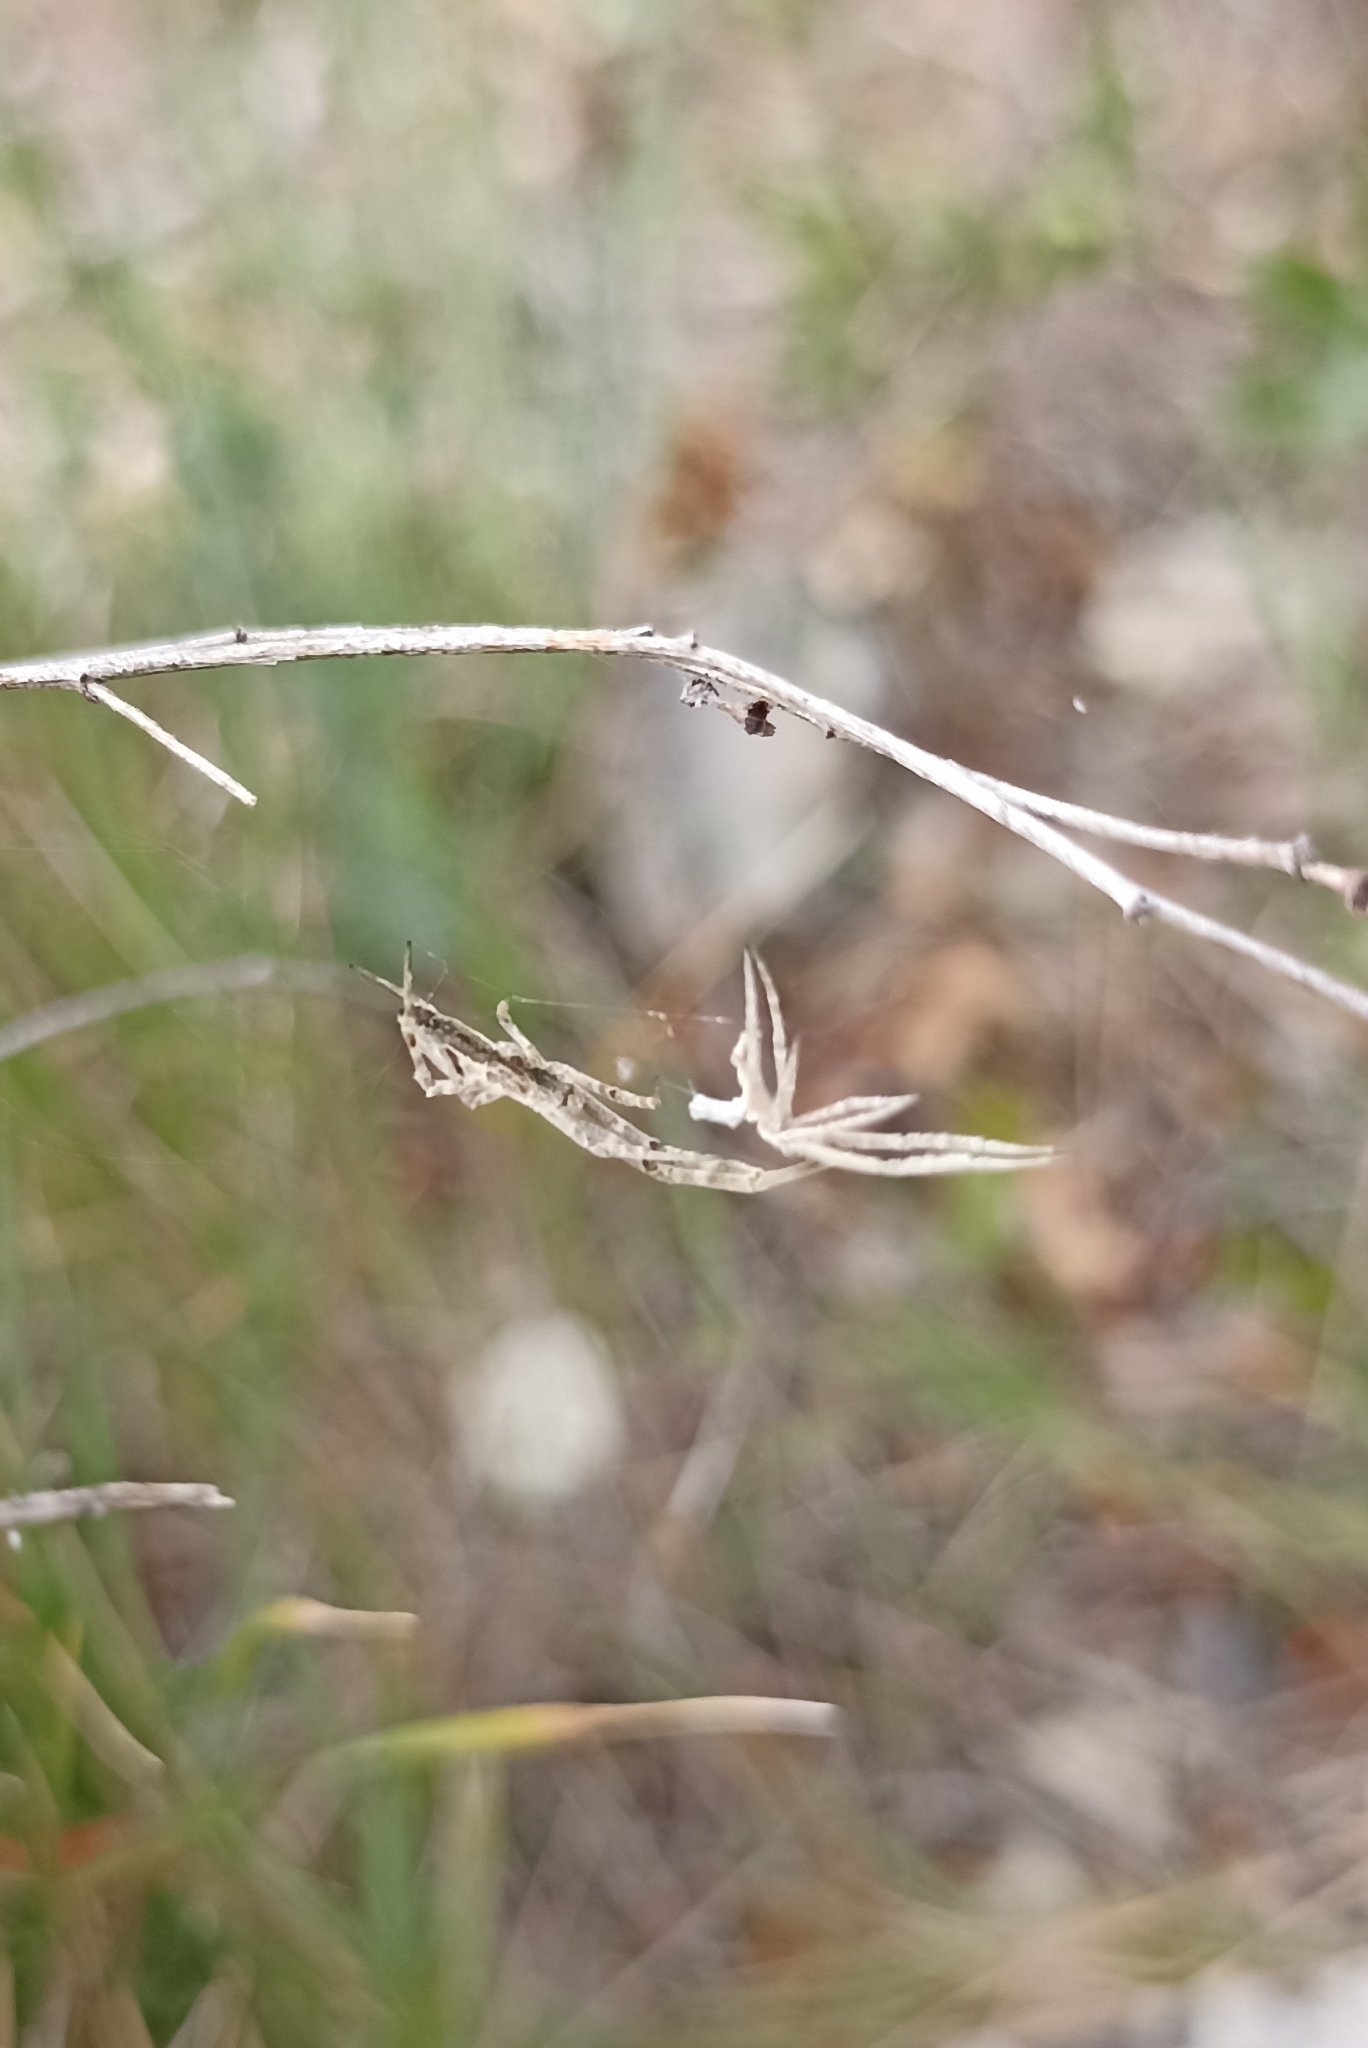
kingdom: Animalia
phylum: Arthropoda
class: Arachnida
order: Araneae
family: Uloboridae
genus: Uloborus
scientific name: Uloborus walckenaerius
